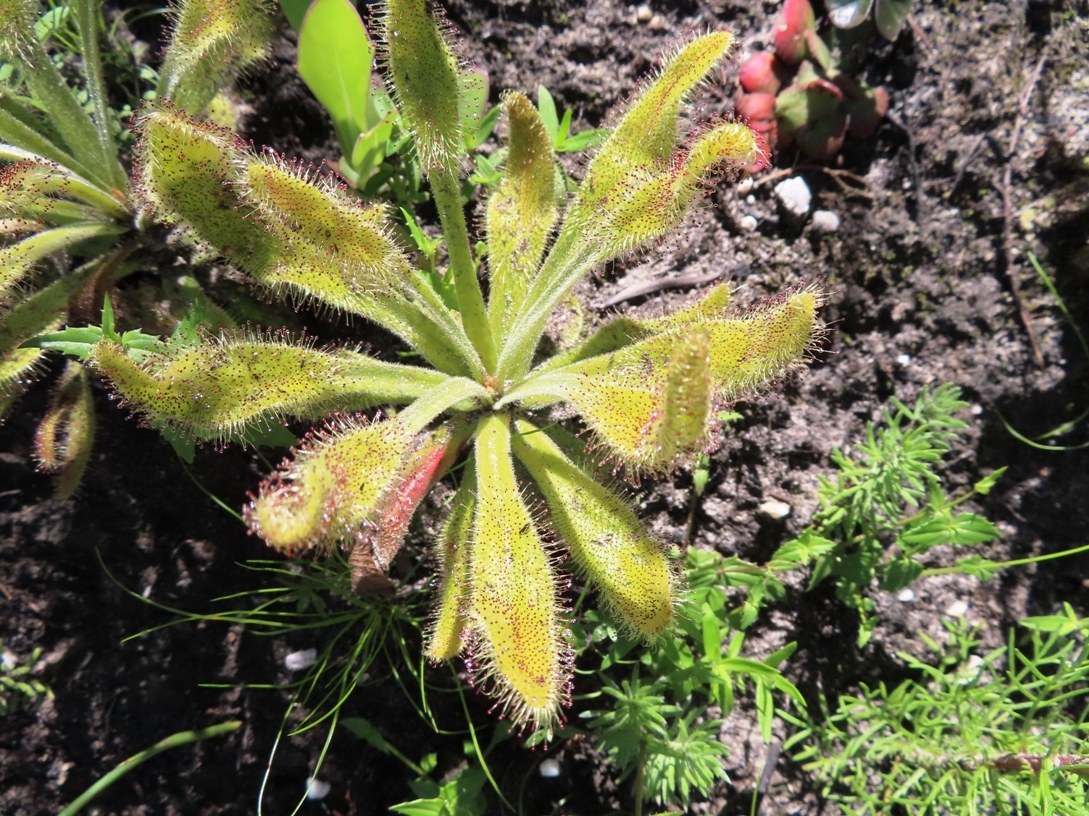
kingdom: Plantae
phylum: Tracheophyta
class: Magnoliopsida
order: Caryophyllales
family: Droseraceae
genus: Drosera
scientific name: Drosera hilaris
